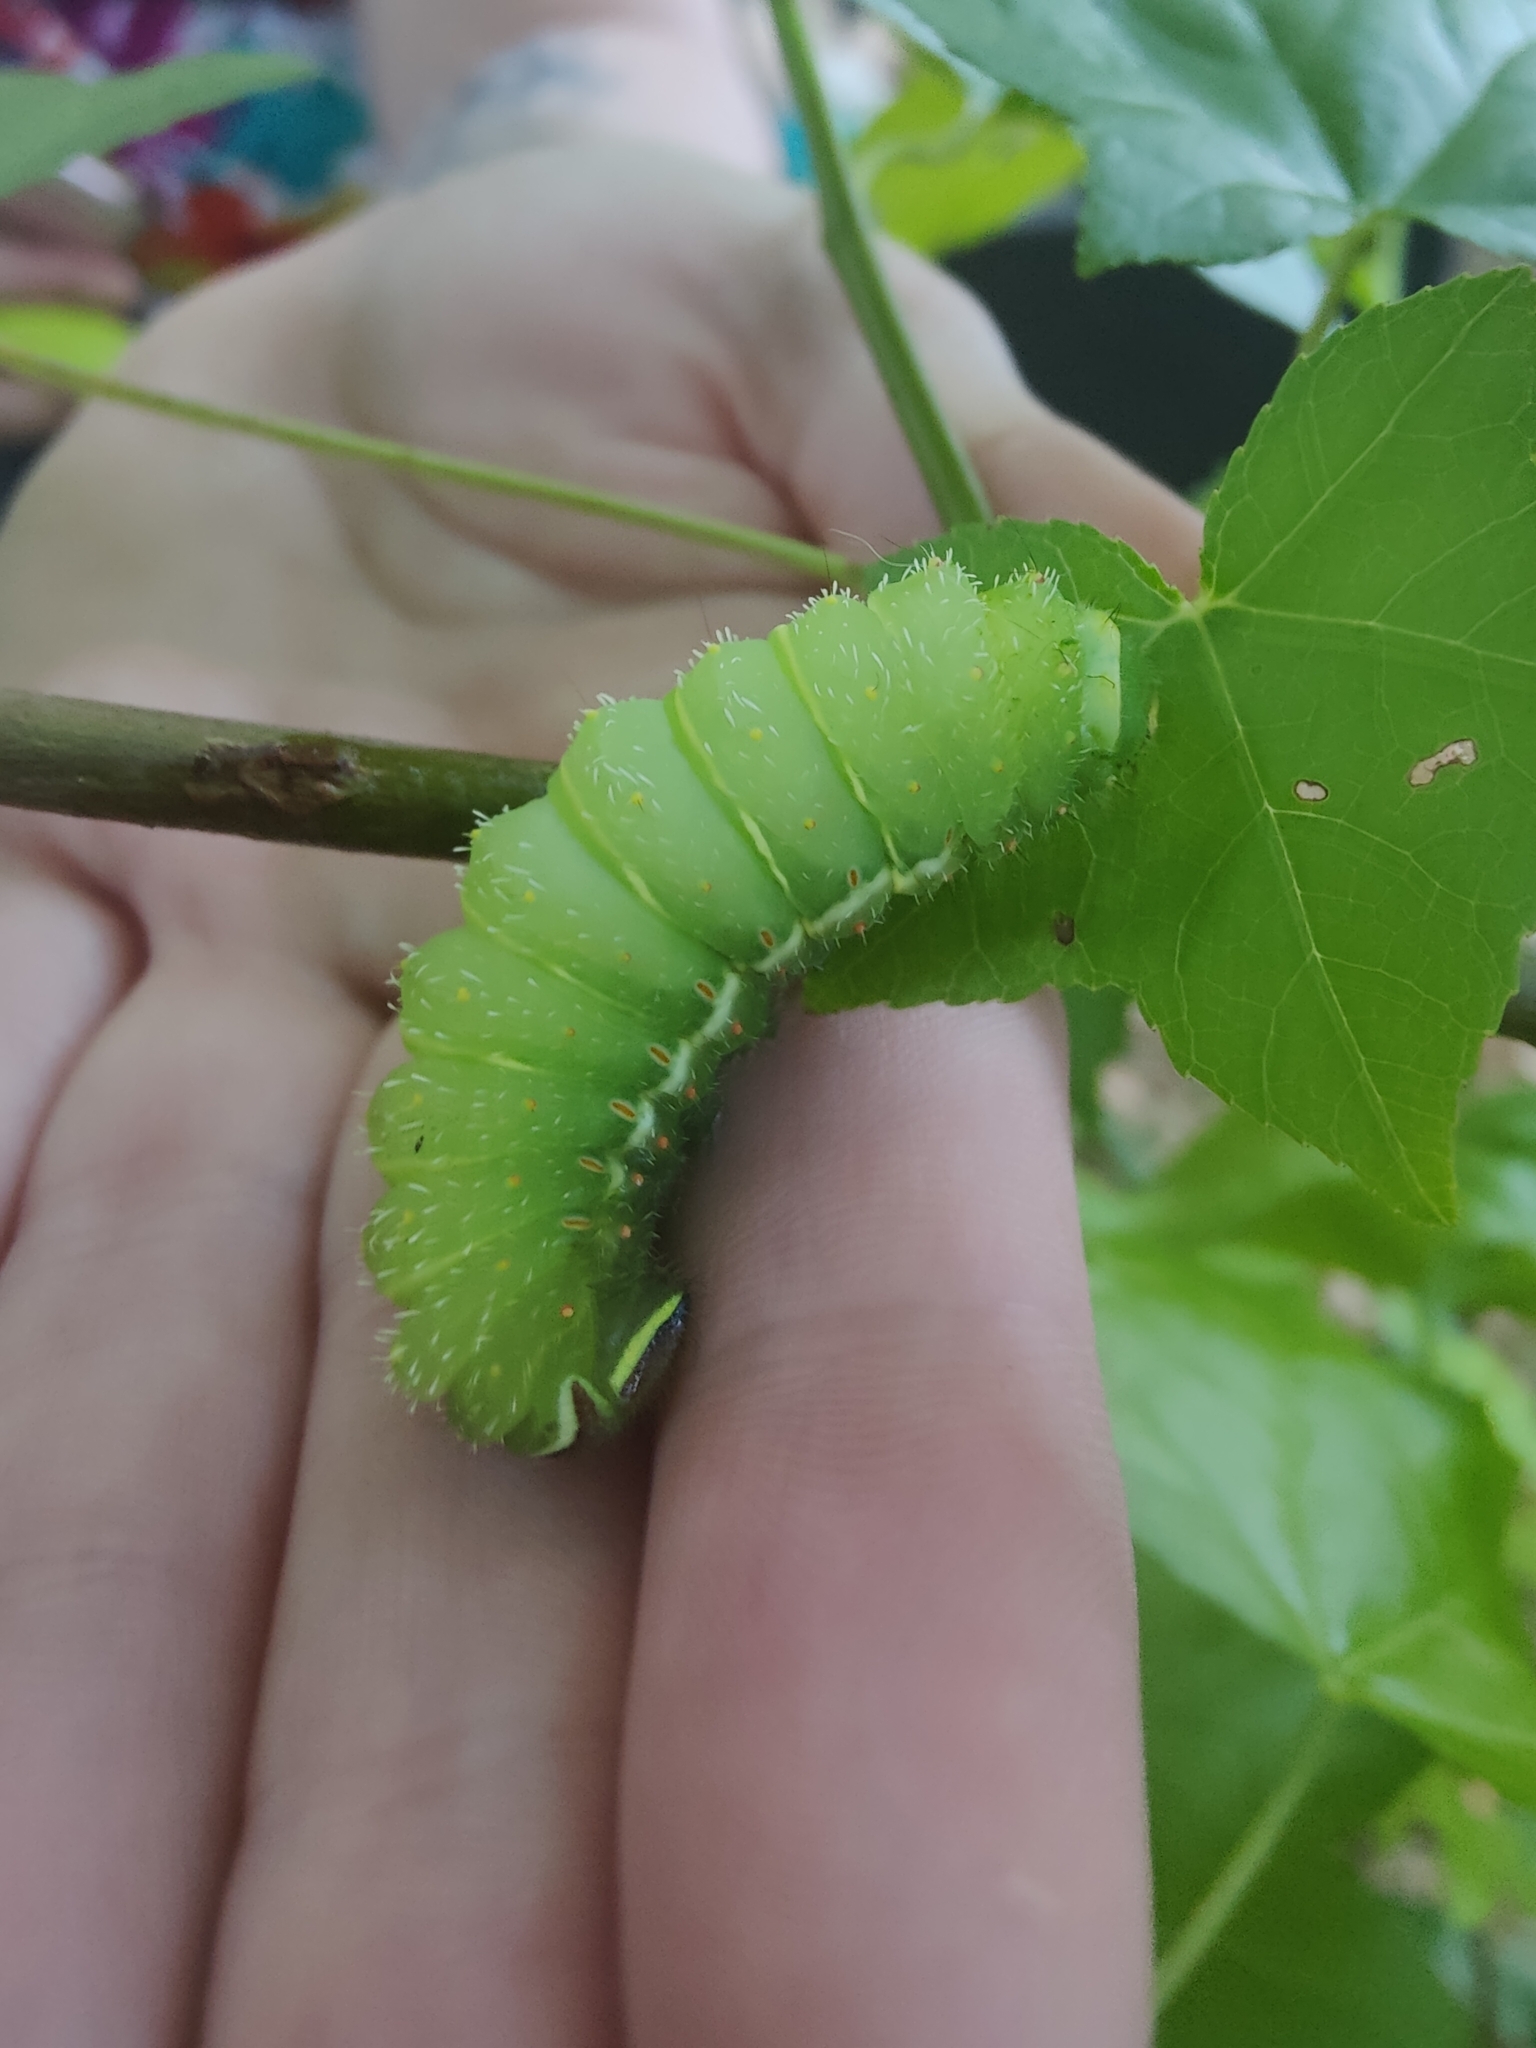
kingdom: Animalia
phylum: Arthropoda
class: Insecta
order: Lepidoptera
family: Saturniidae
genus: Actias
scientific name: Actias luna
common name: Luna moth
